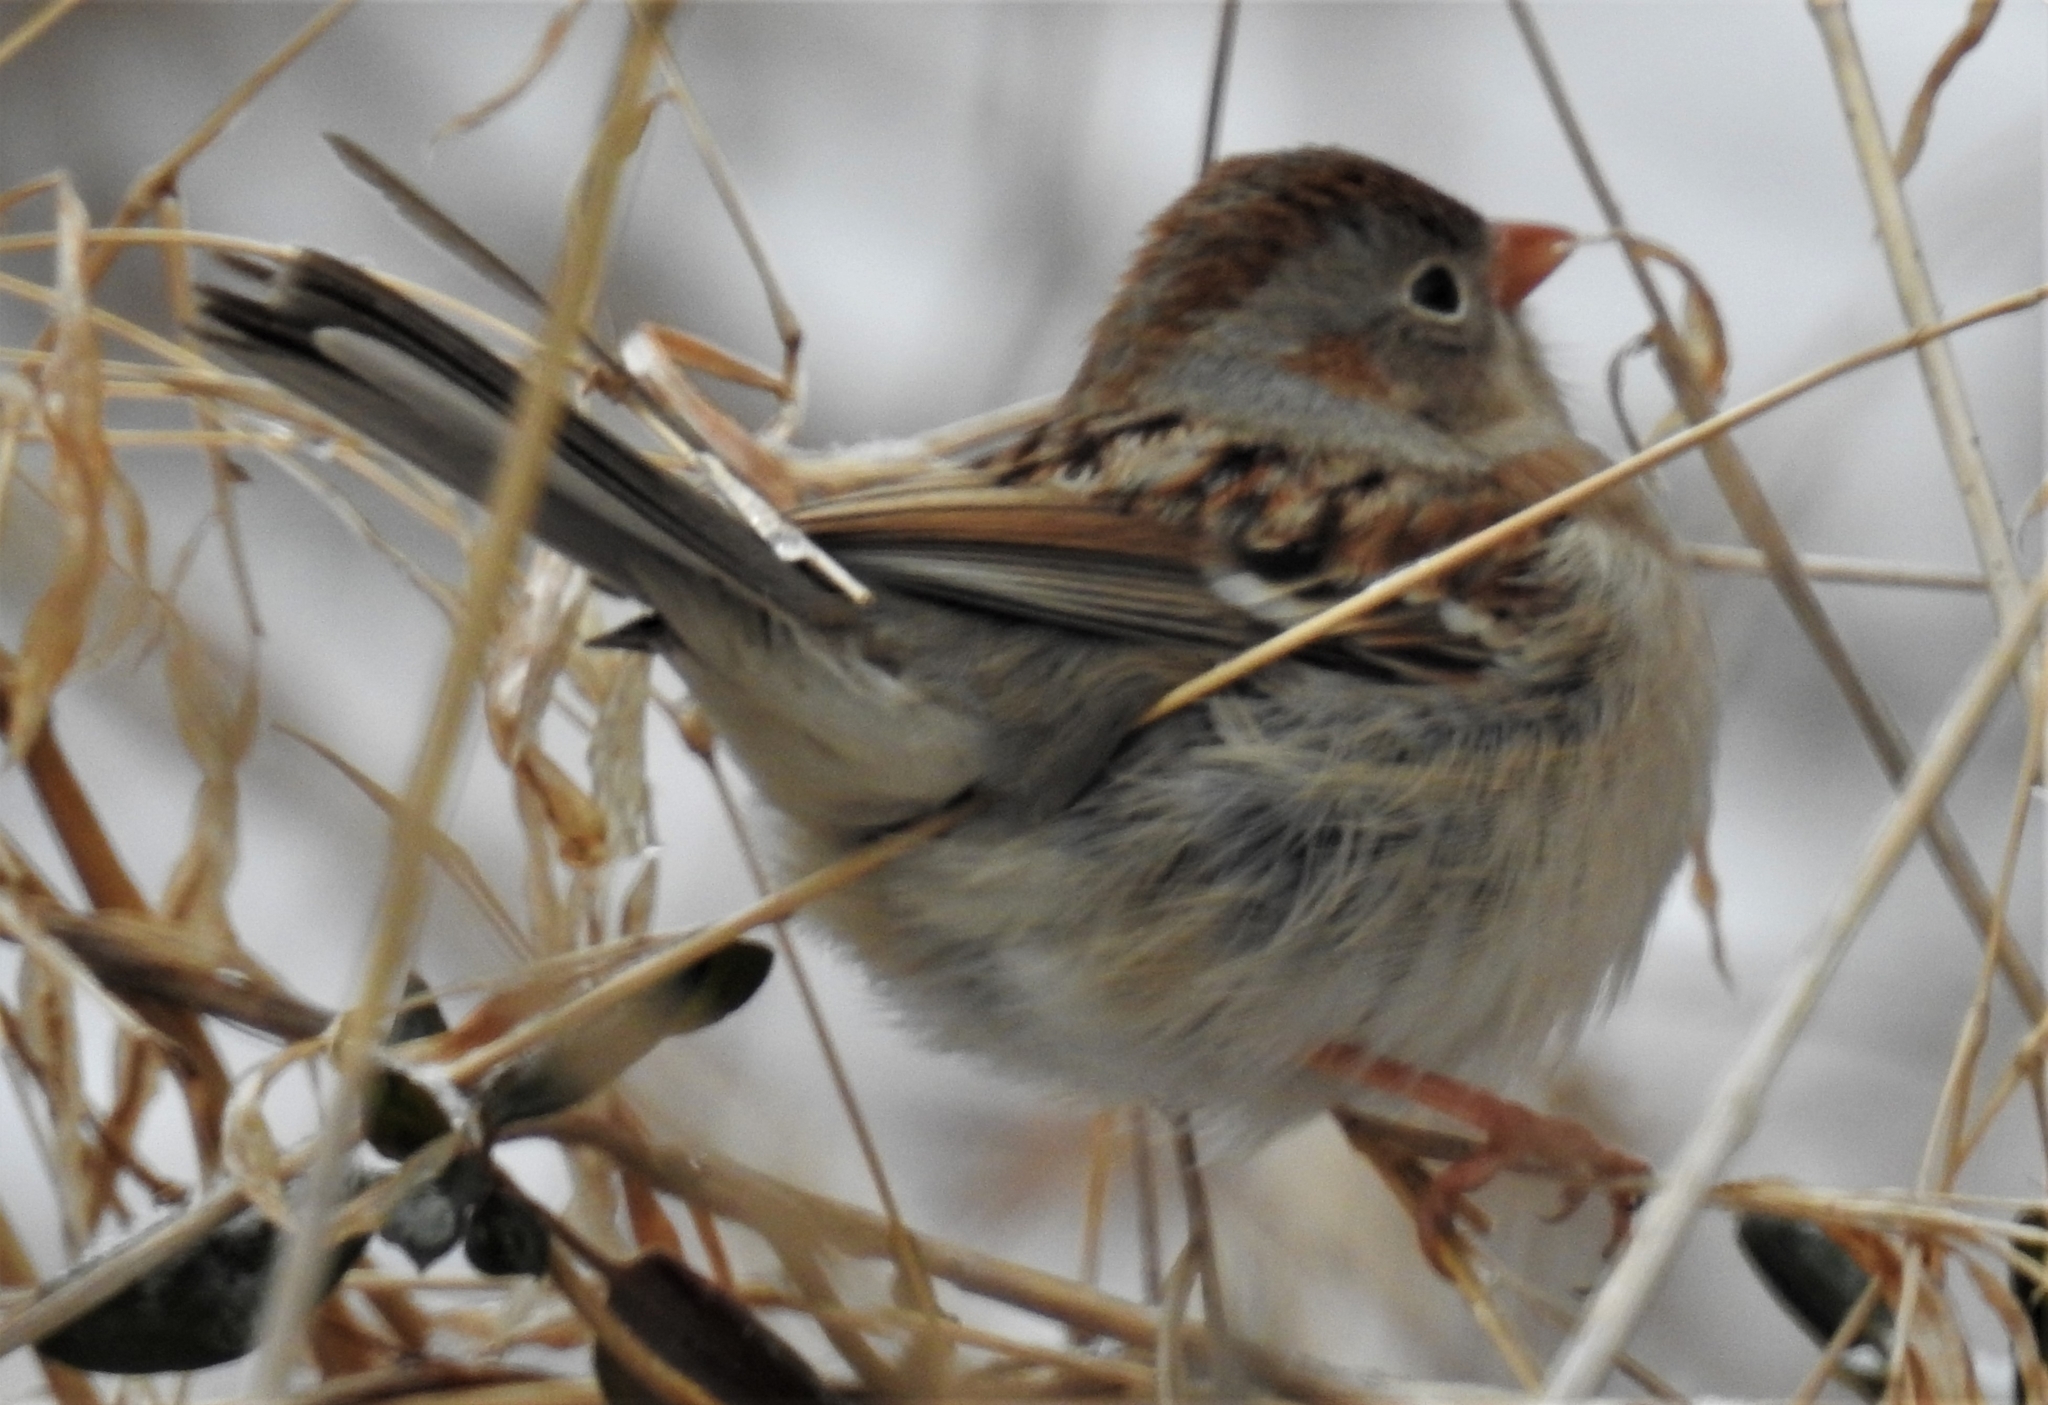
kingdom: Animalia
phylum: Chordata
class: Aves
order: Passeriformes
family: Passerellidae
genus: Spizella
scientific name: Spizella pusilla
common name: Field sparrow
